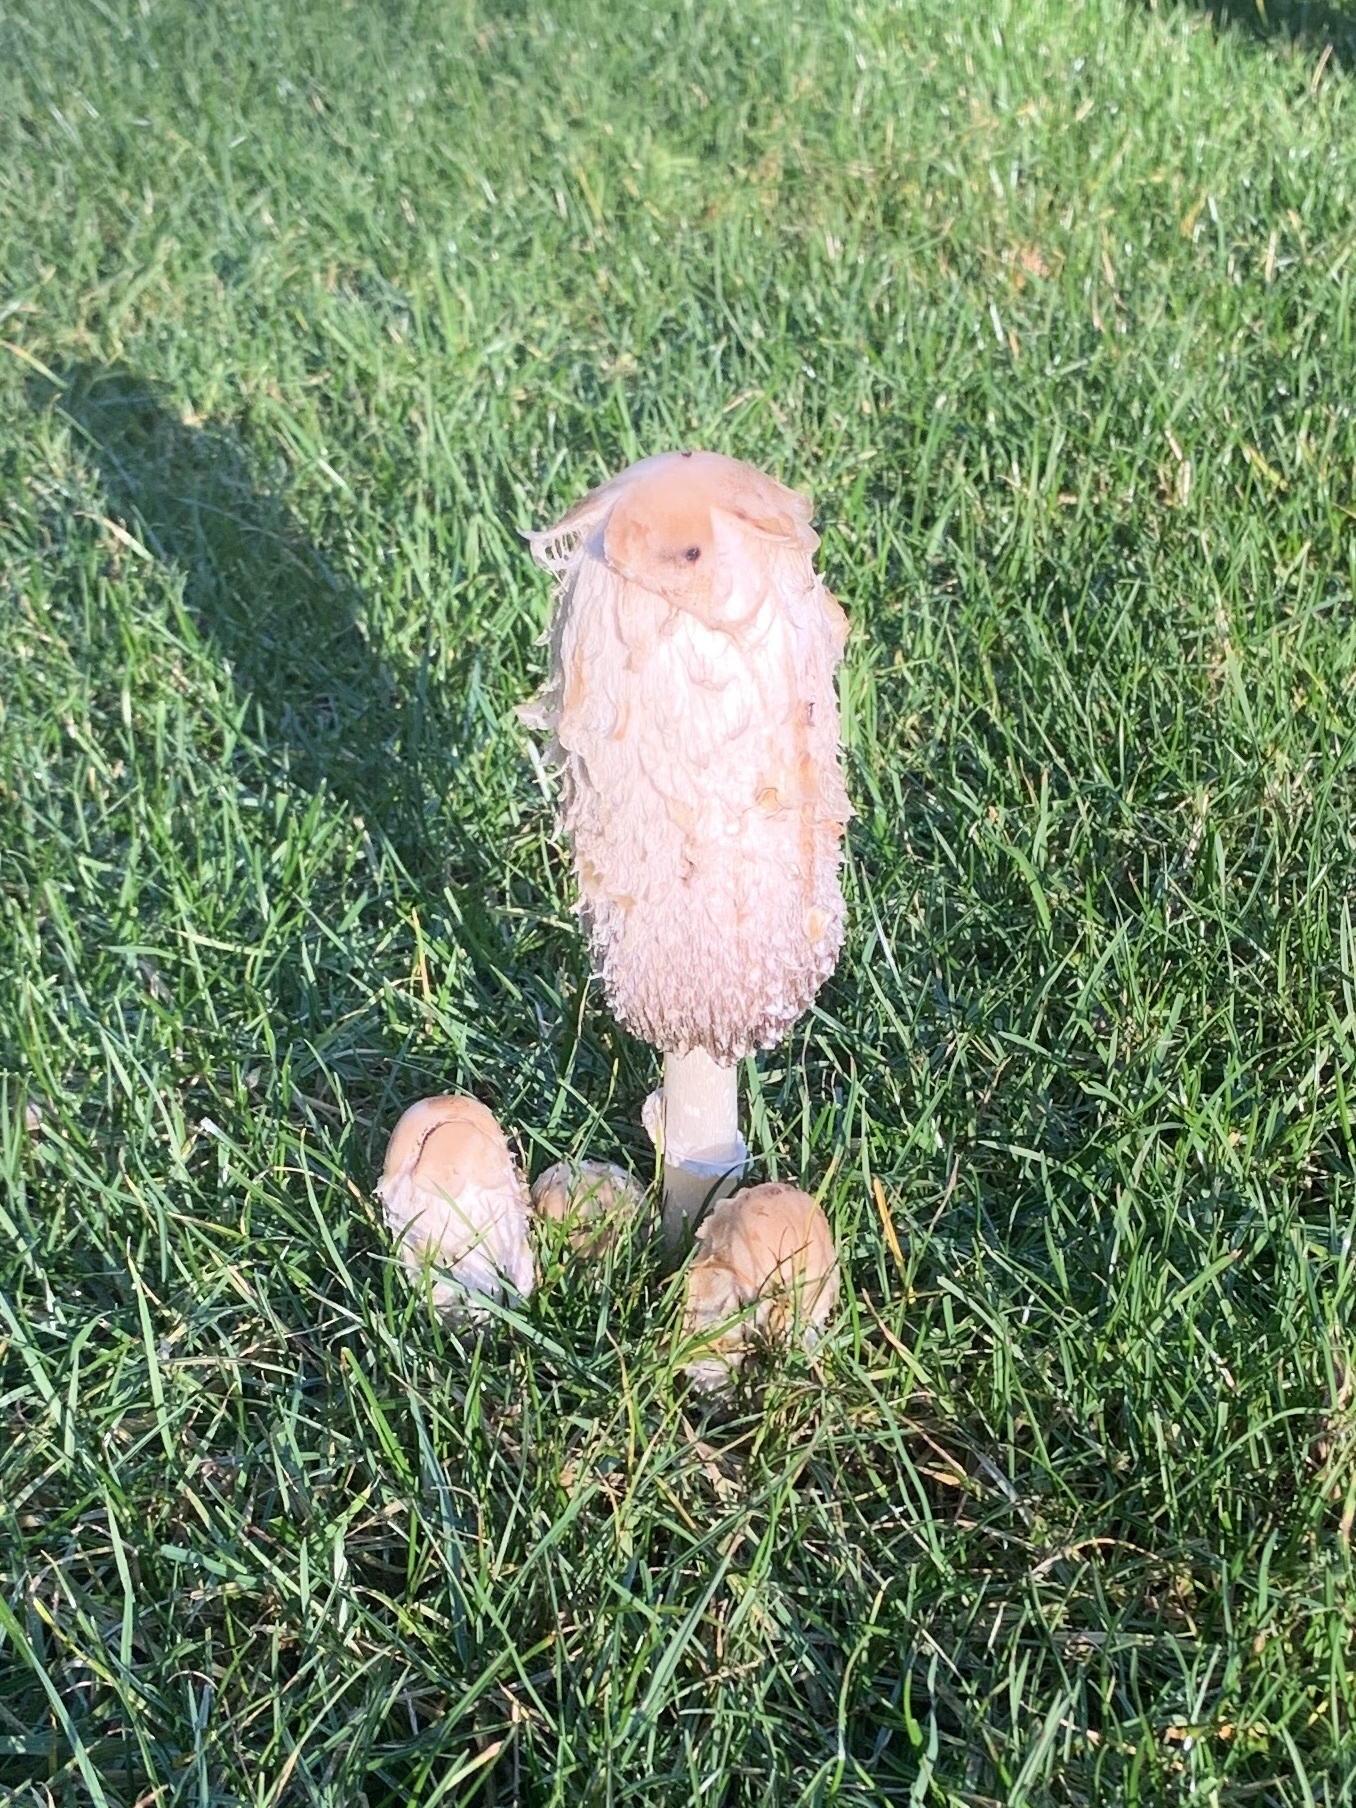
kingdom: Fungi
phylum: Basidiomycota
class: Agaricomycetes
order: Agaricales
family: Agaricaceae
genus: Coprinus
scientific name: Coprinus comatus
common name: Lawyer's wig
